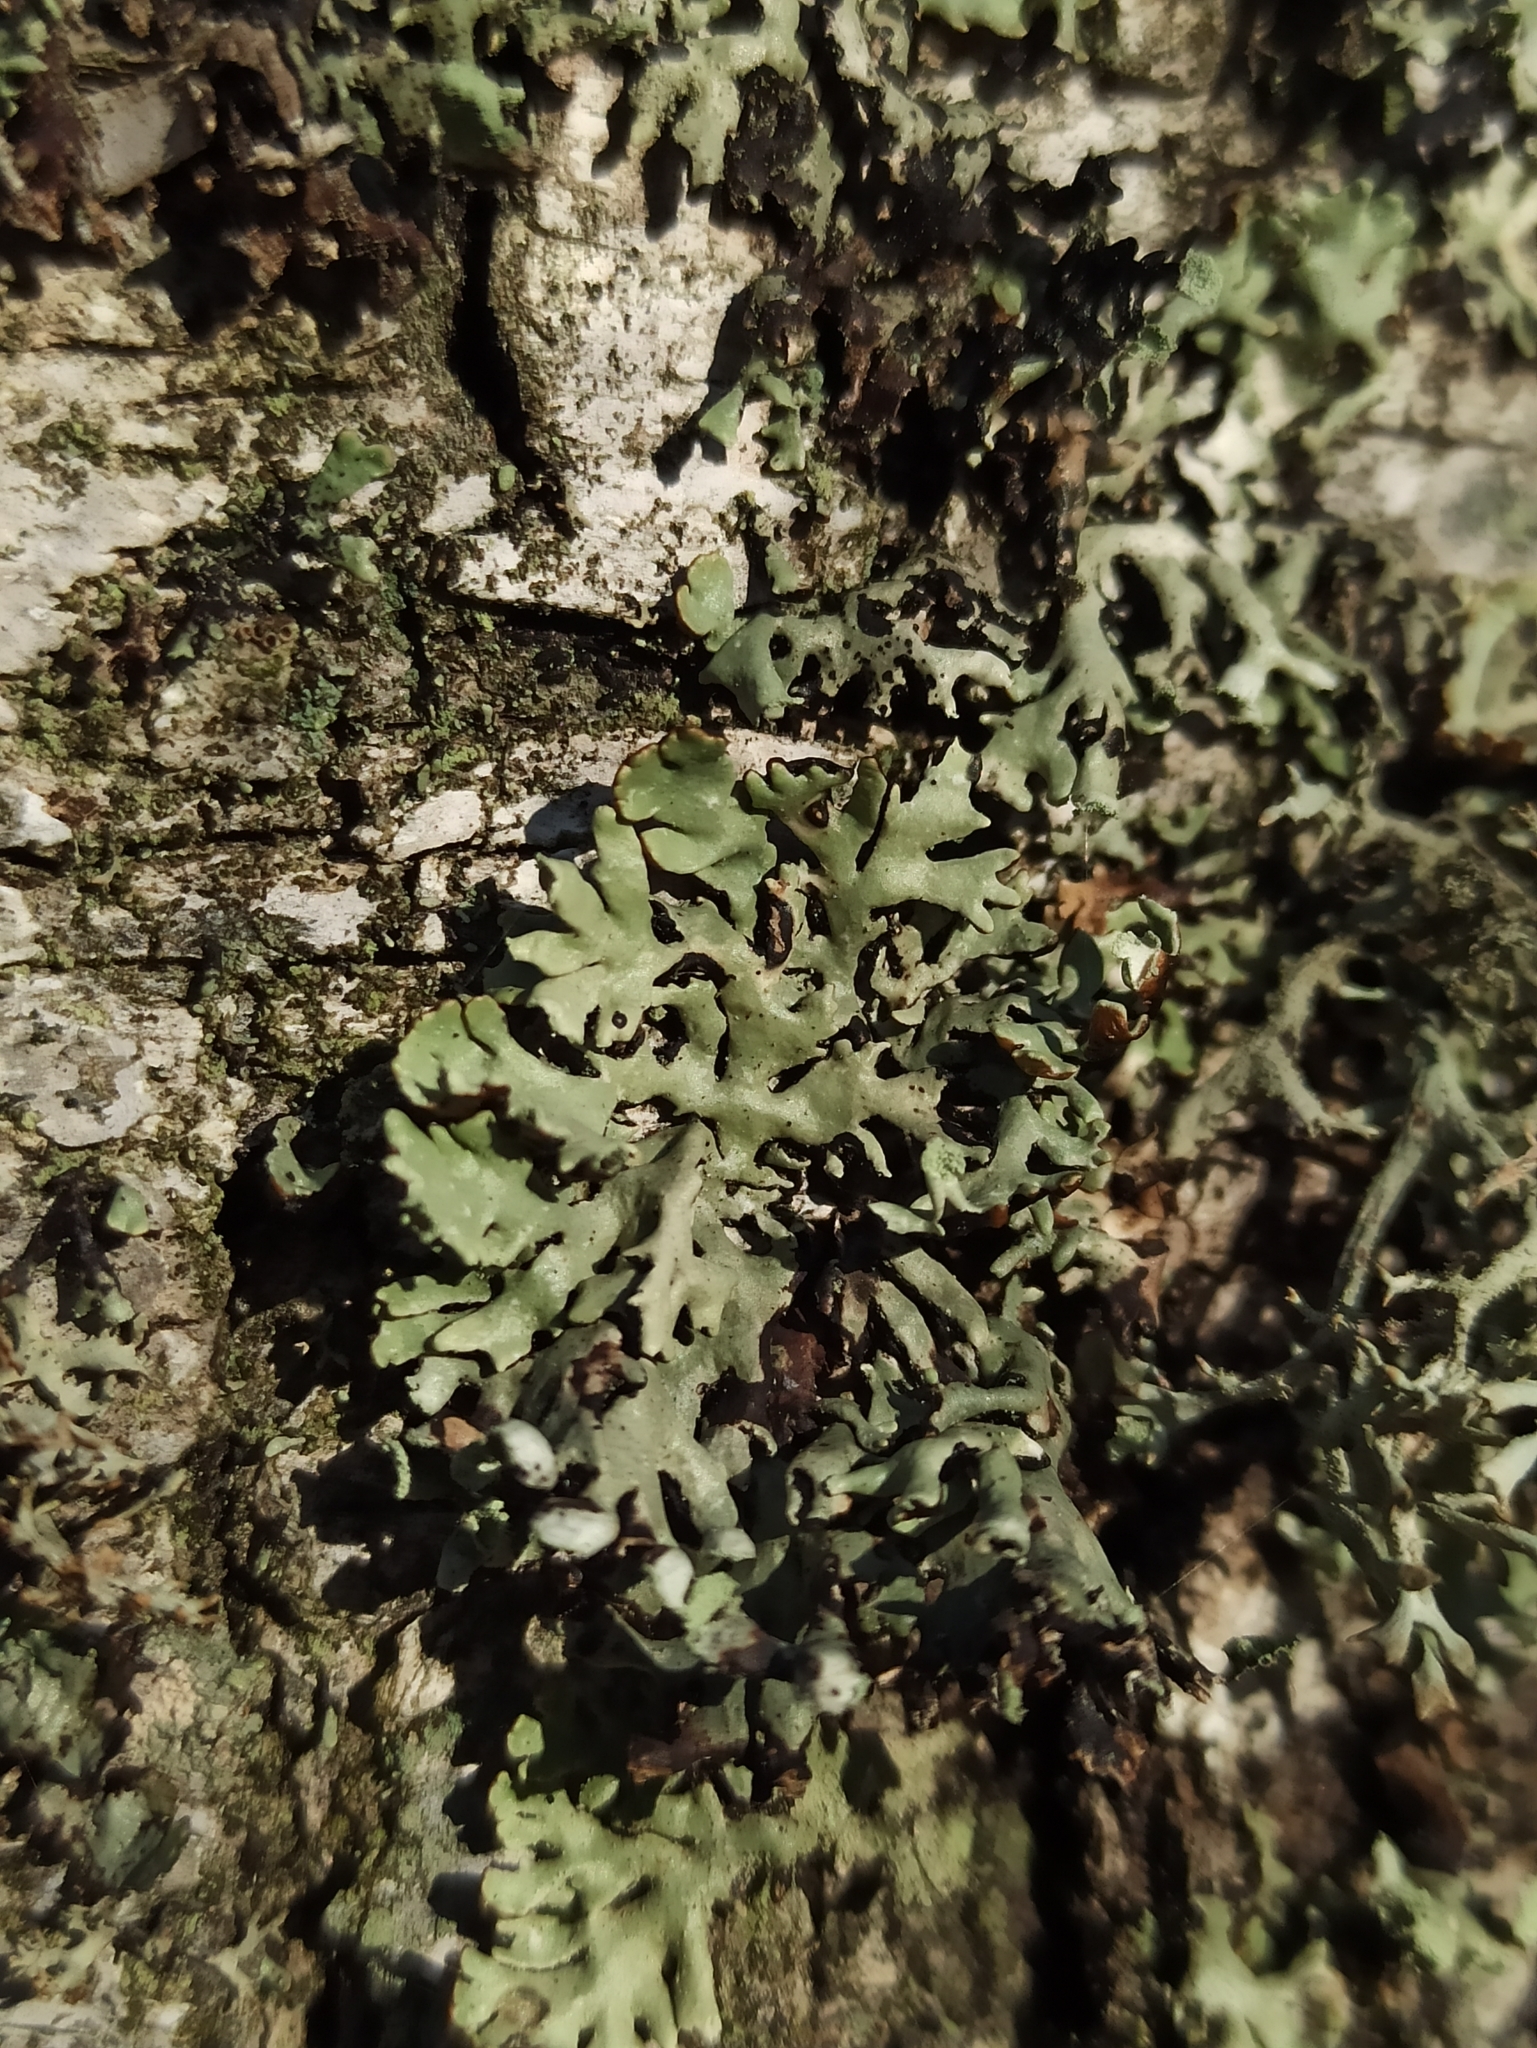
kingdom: Fungi
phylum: Ascomycota
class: Lecanoromycetes
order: Lecanorales
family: Parmeliaceae
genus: Hypogymnia
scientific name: Hypogymnia physodes
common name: Dark crottle
